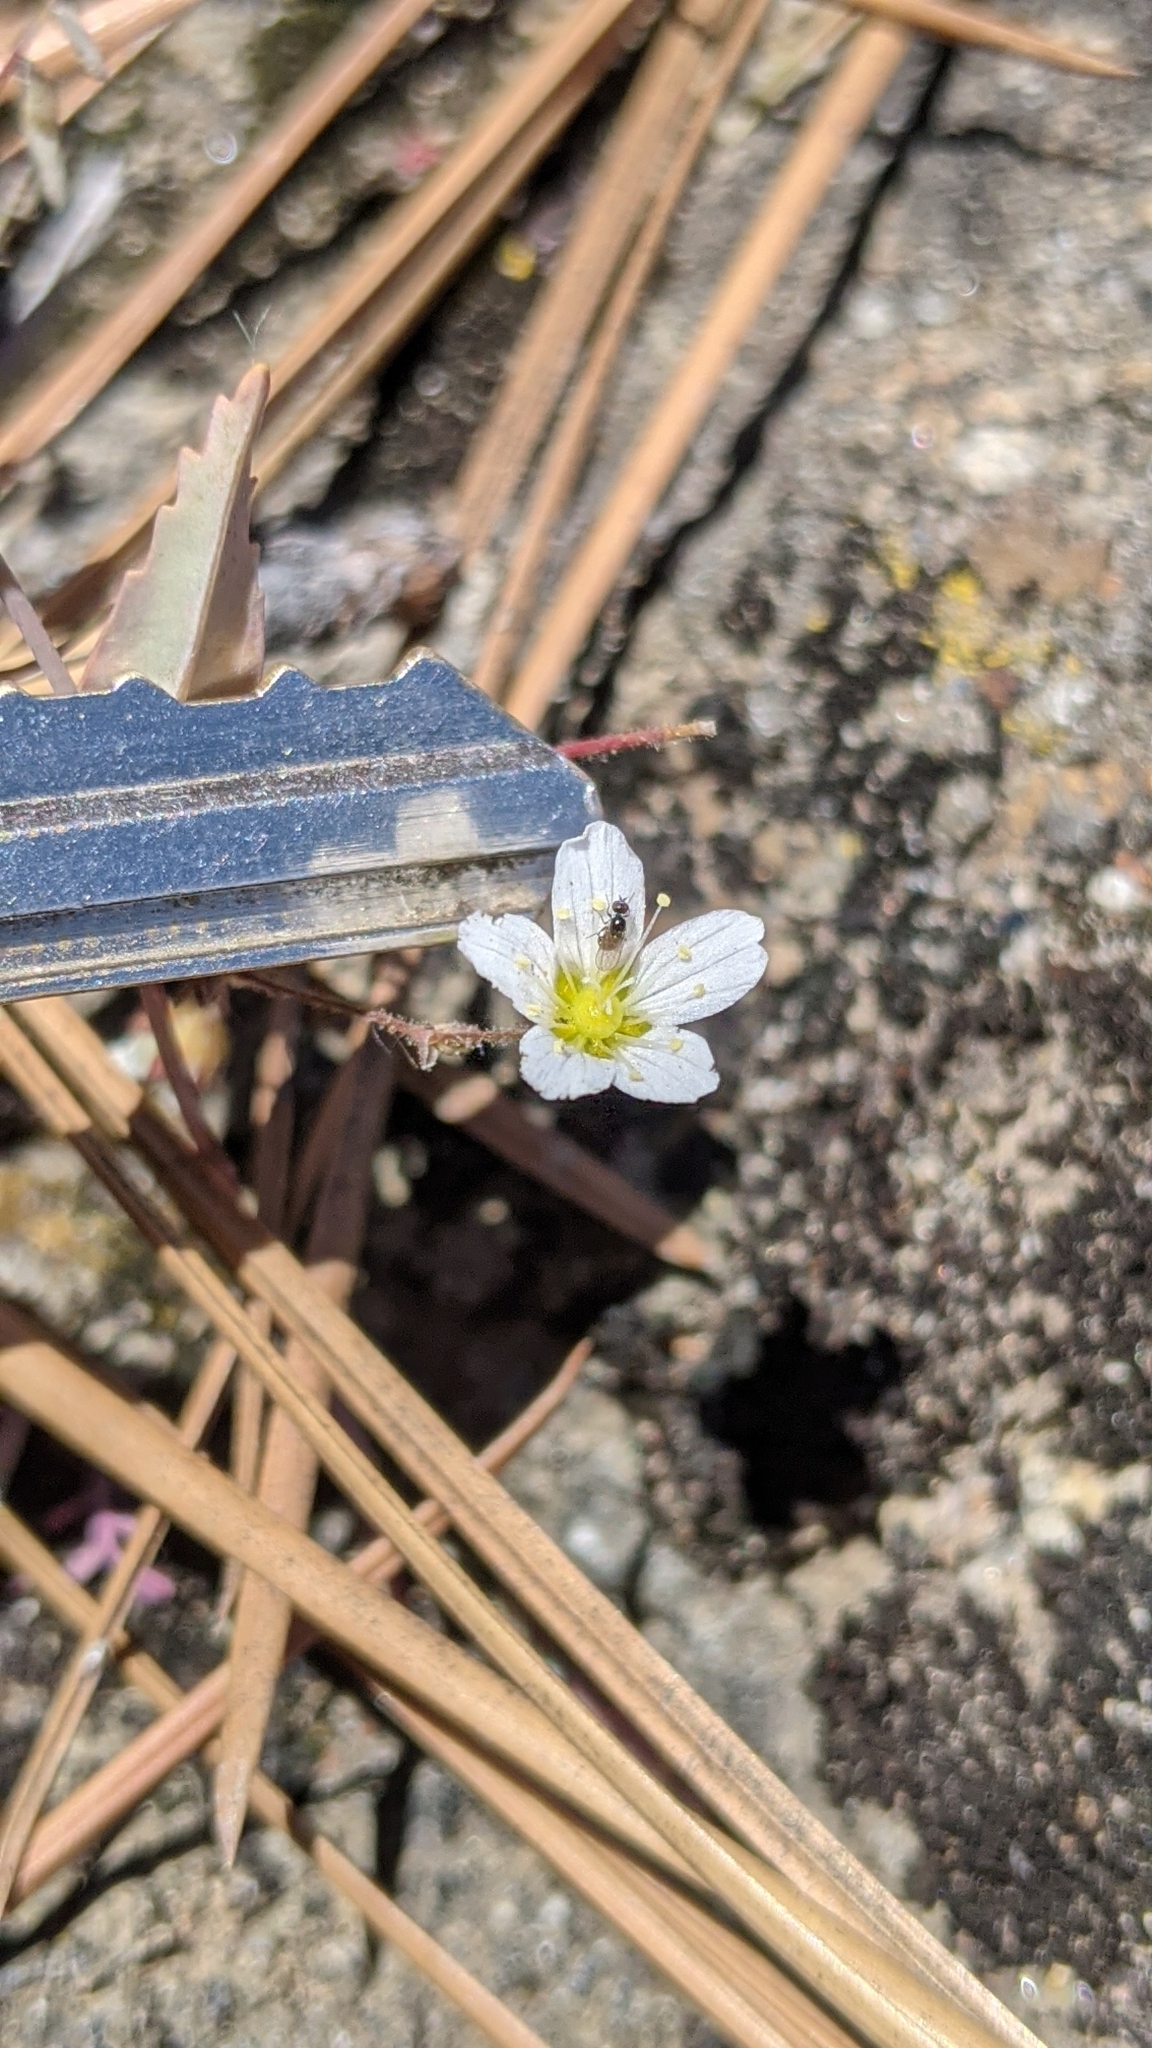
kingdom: Plantae
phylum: Tracheophyta
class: Magnoliopsida
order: Caryophyllales
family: Caryophyllaceae
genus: Sabulina
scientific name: Sabulina douglasii
